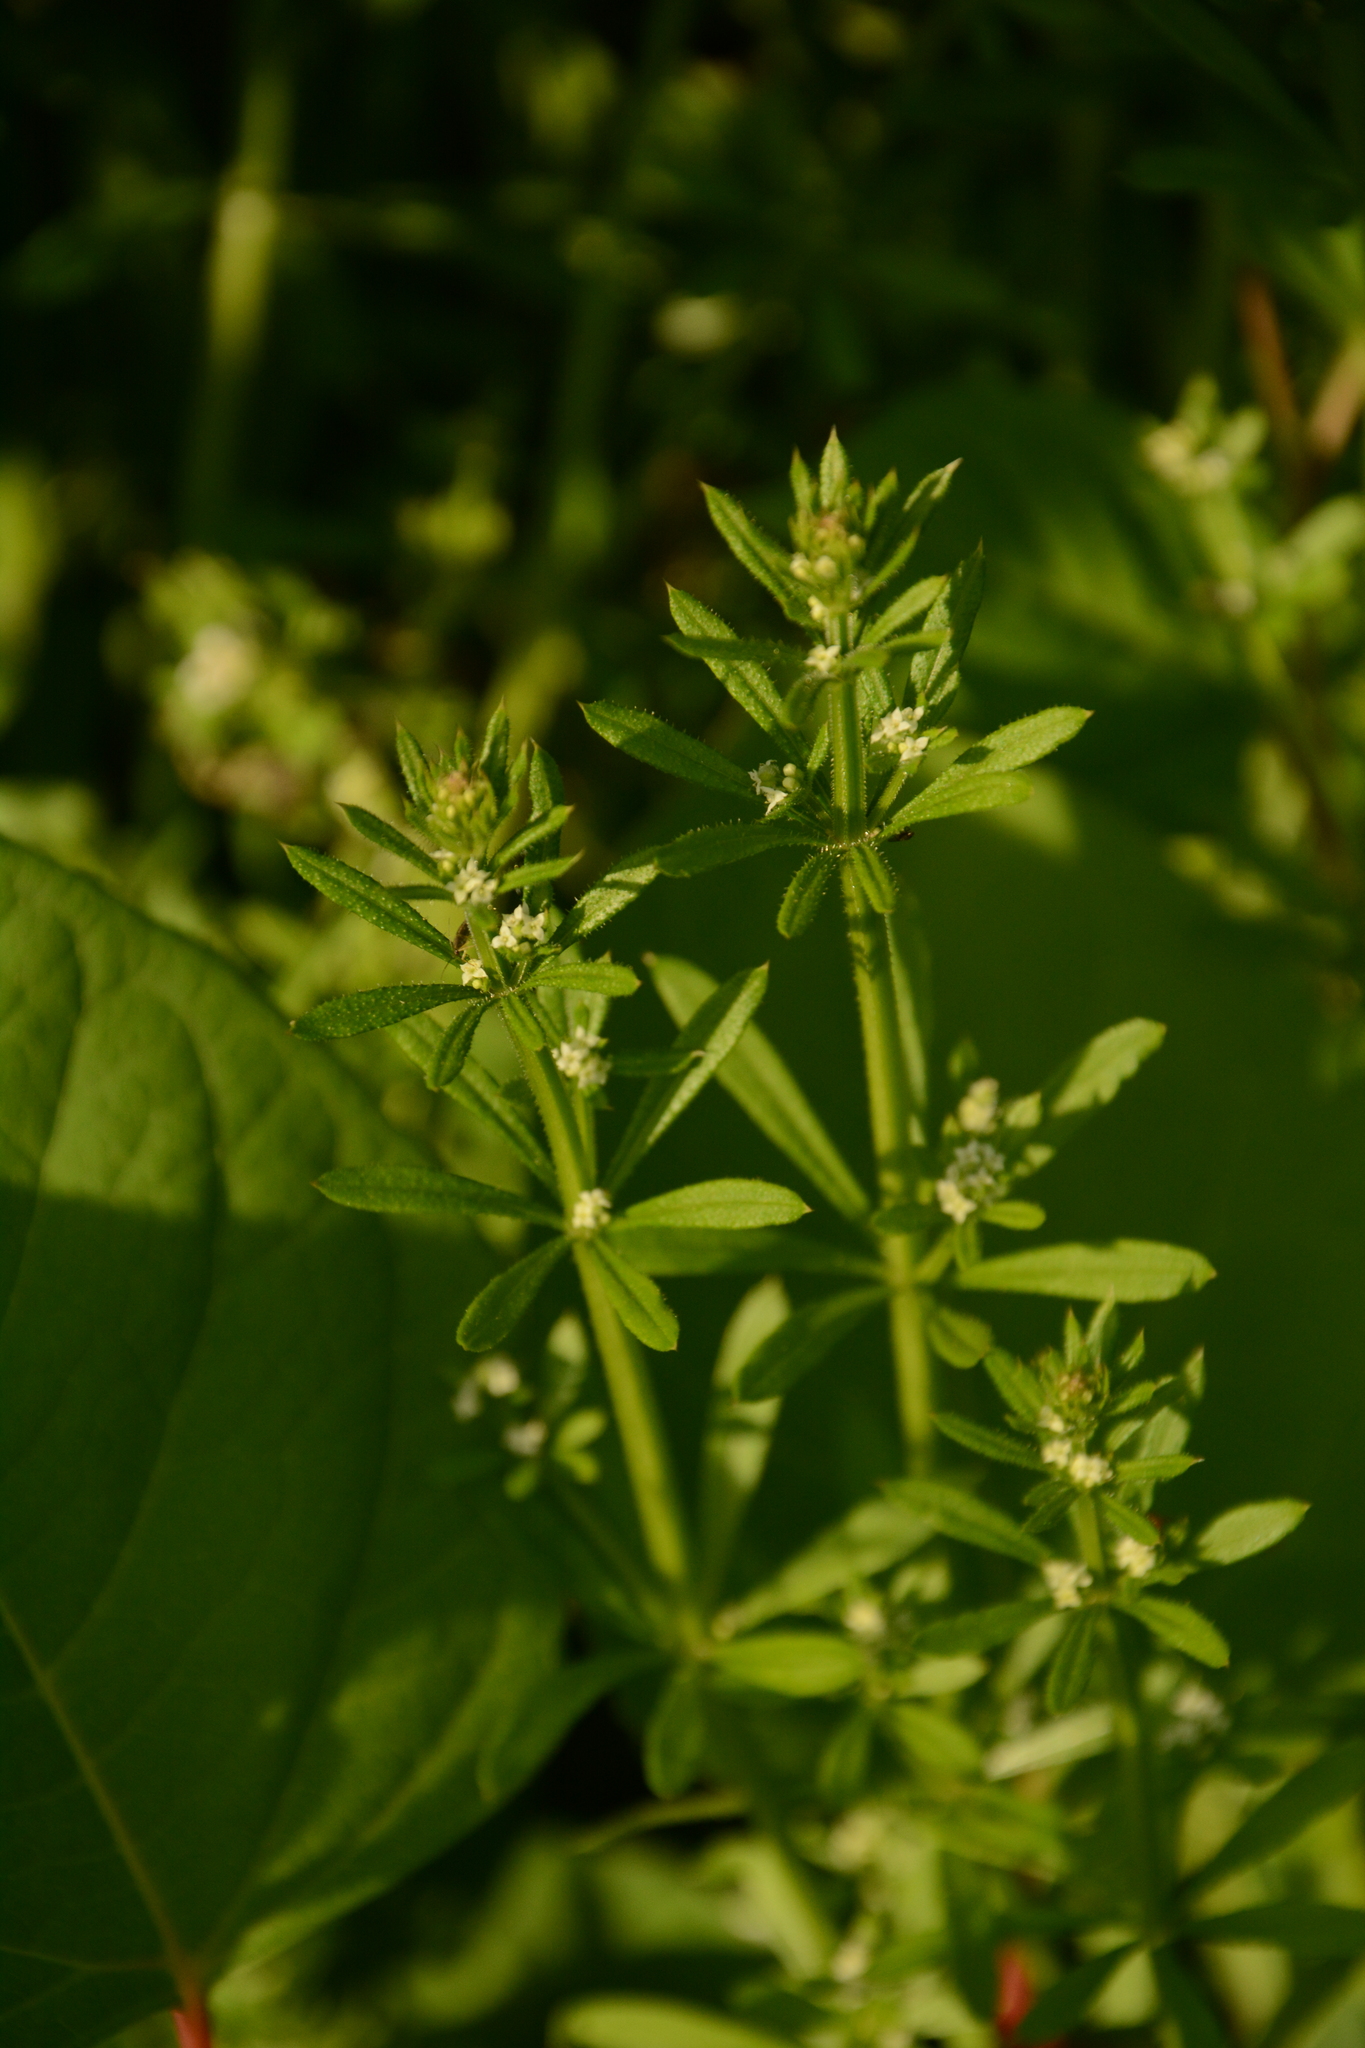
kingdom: Plantae
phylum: Tracheophyta
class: Magnoliopsida
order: Gentianales
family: Rubiaceae
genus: Galium
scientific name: Galium aparine
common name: Cleavers
